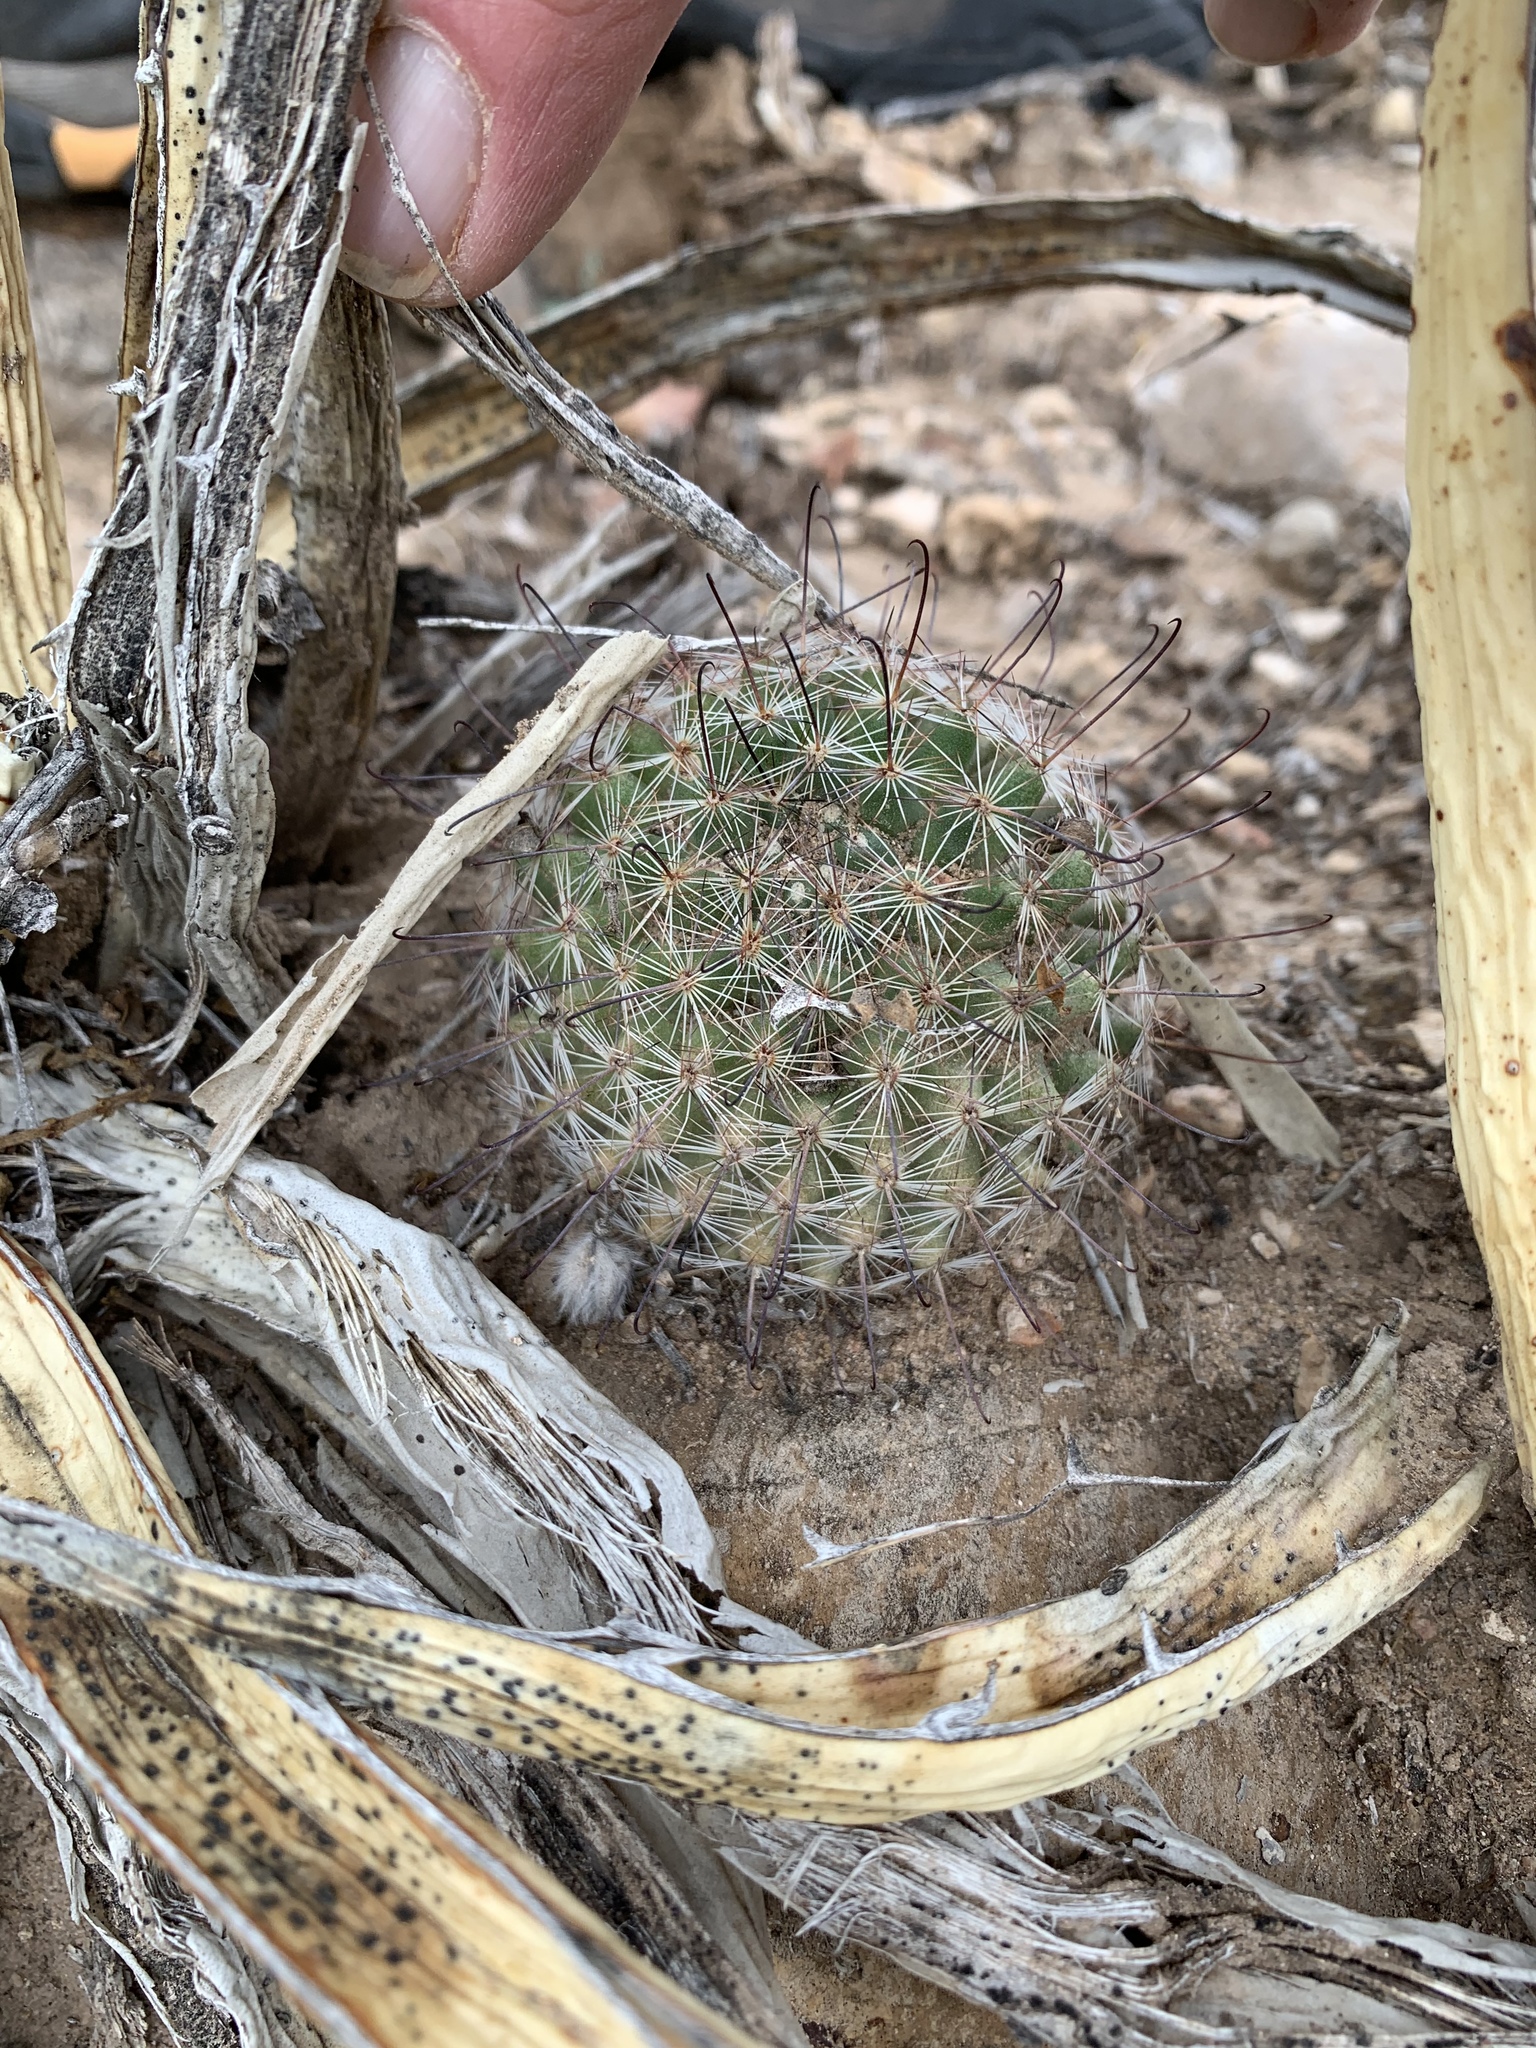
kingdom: Plantae
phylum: Tracheophyta
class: Magnoliopsida
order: Caryophyllales
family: Cactaceae
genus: Cochemiea
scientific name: Cochemiea grahamii
